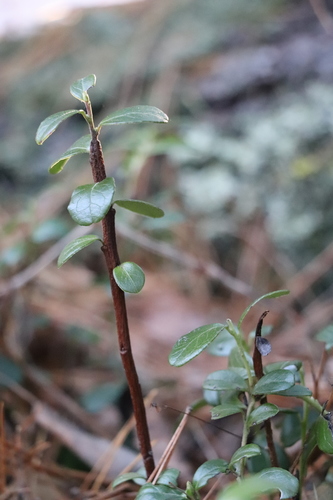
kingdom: Fungi
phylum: Basidiomycota
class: Pucciniomycetes
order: Pucciniales
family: Pucciniastraceae
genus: Calyptospora
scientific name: Calyptospora columnaris
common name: Huckleberry broom rust fungus
